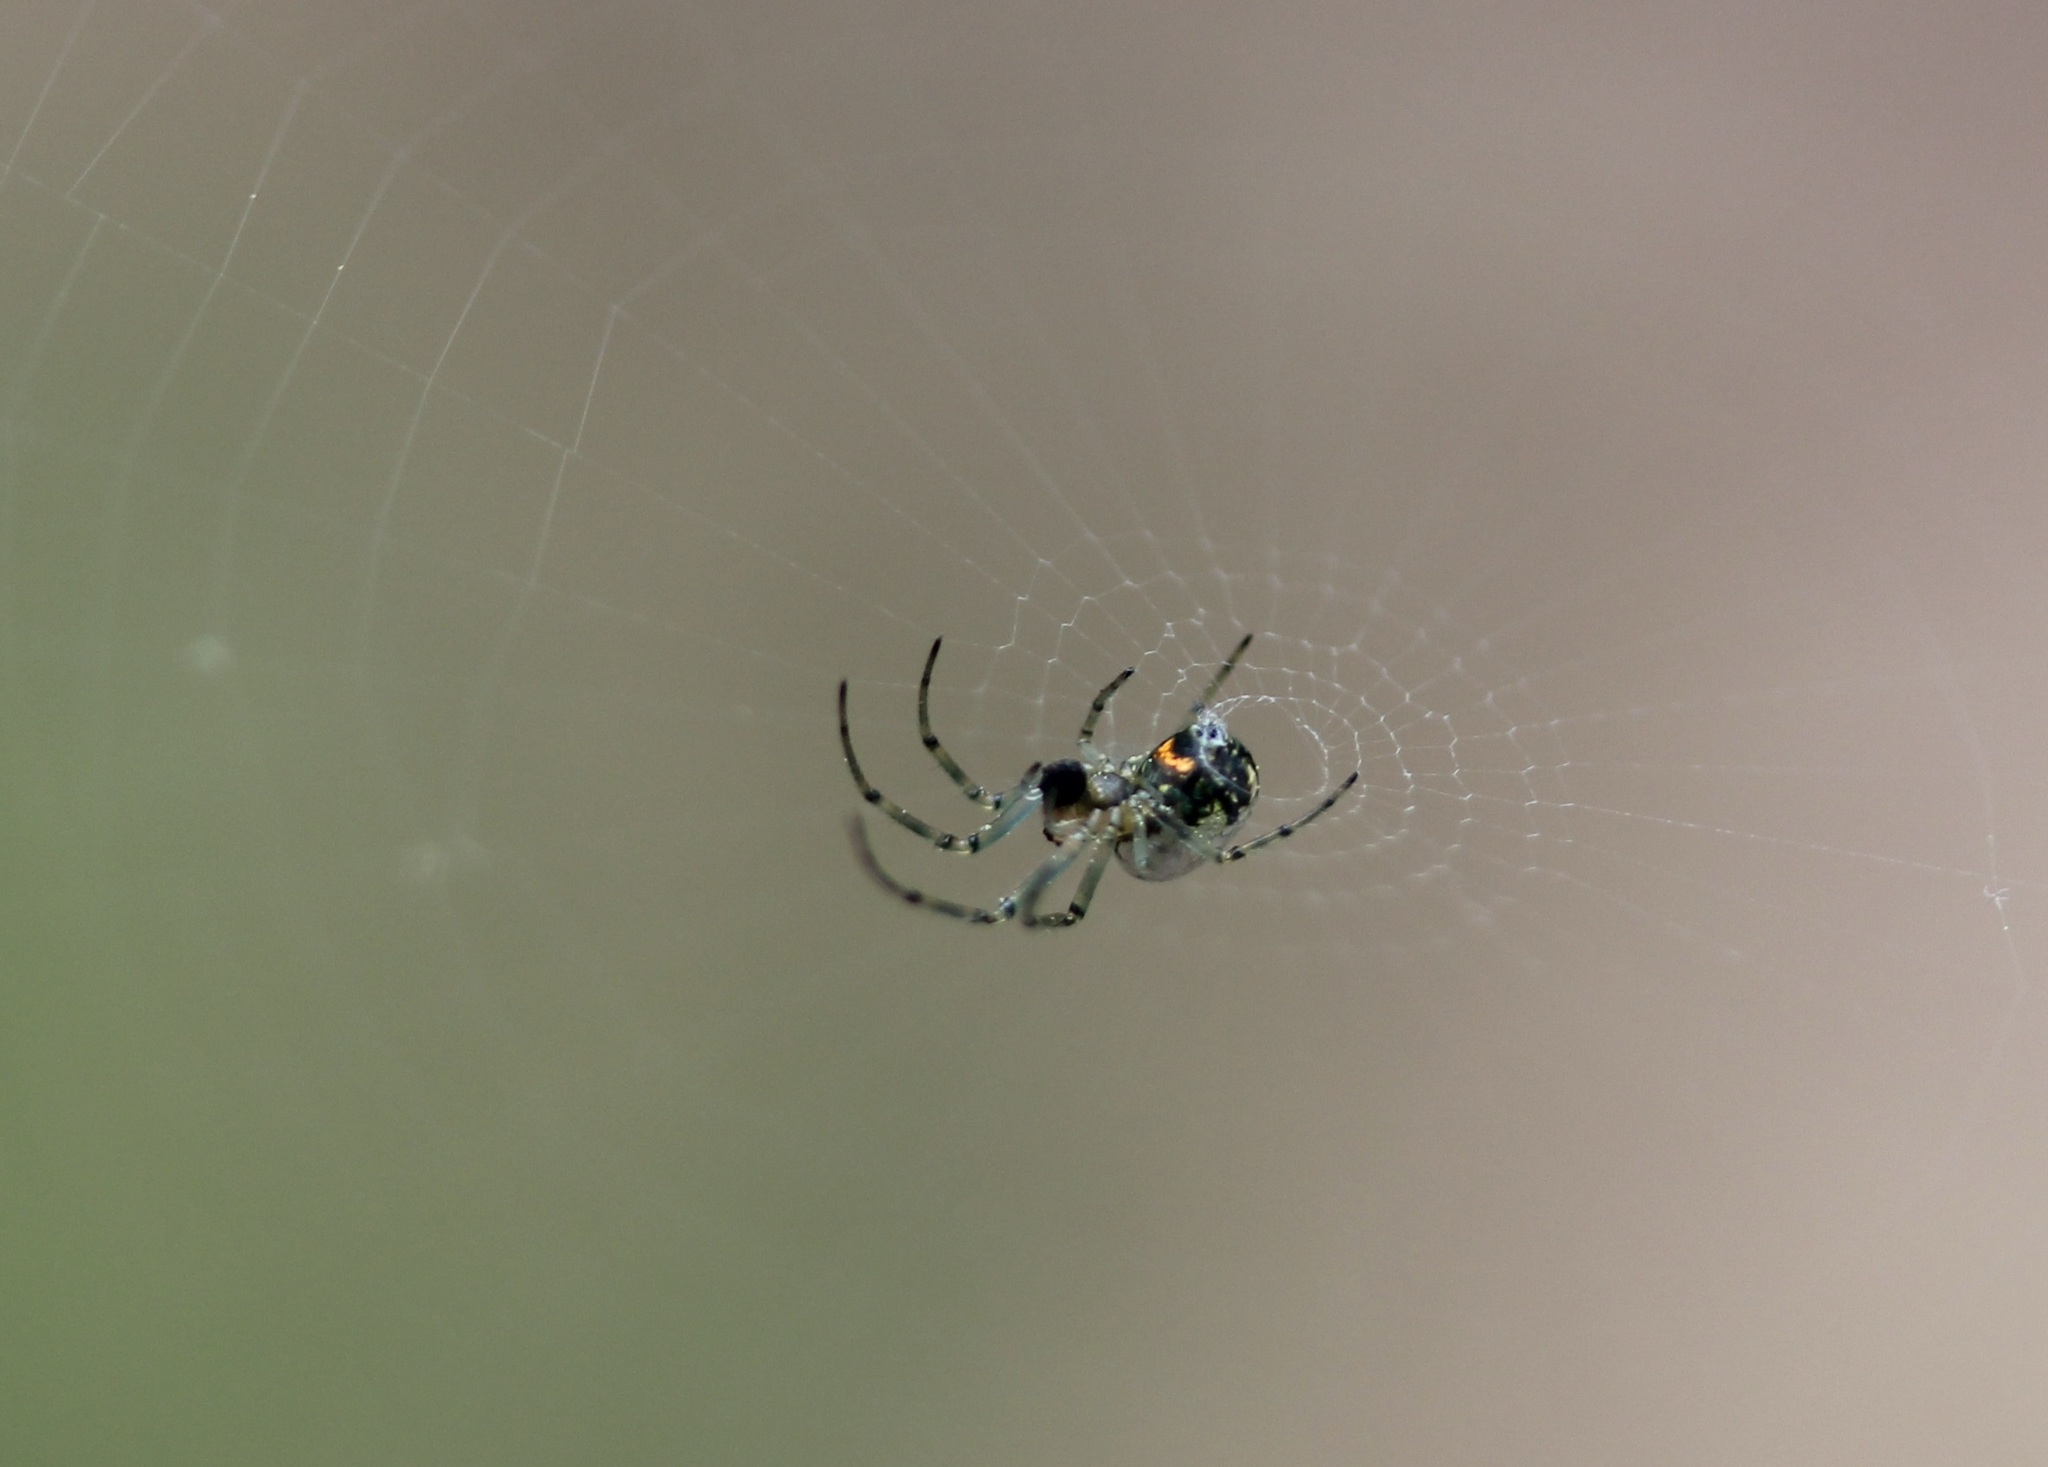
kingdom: Animalia
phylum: Arthropoda
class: Arachnida
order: Araneae
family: Tetragnathidae
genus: Leucauge
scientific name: Leucauge venusta
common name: Longjawed orb weavers
